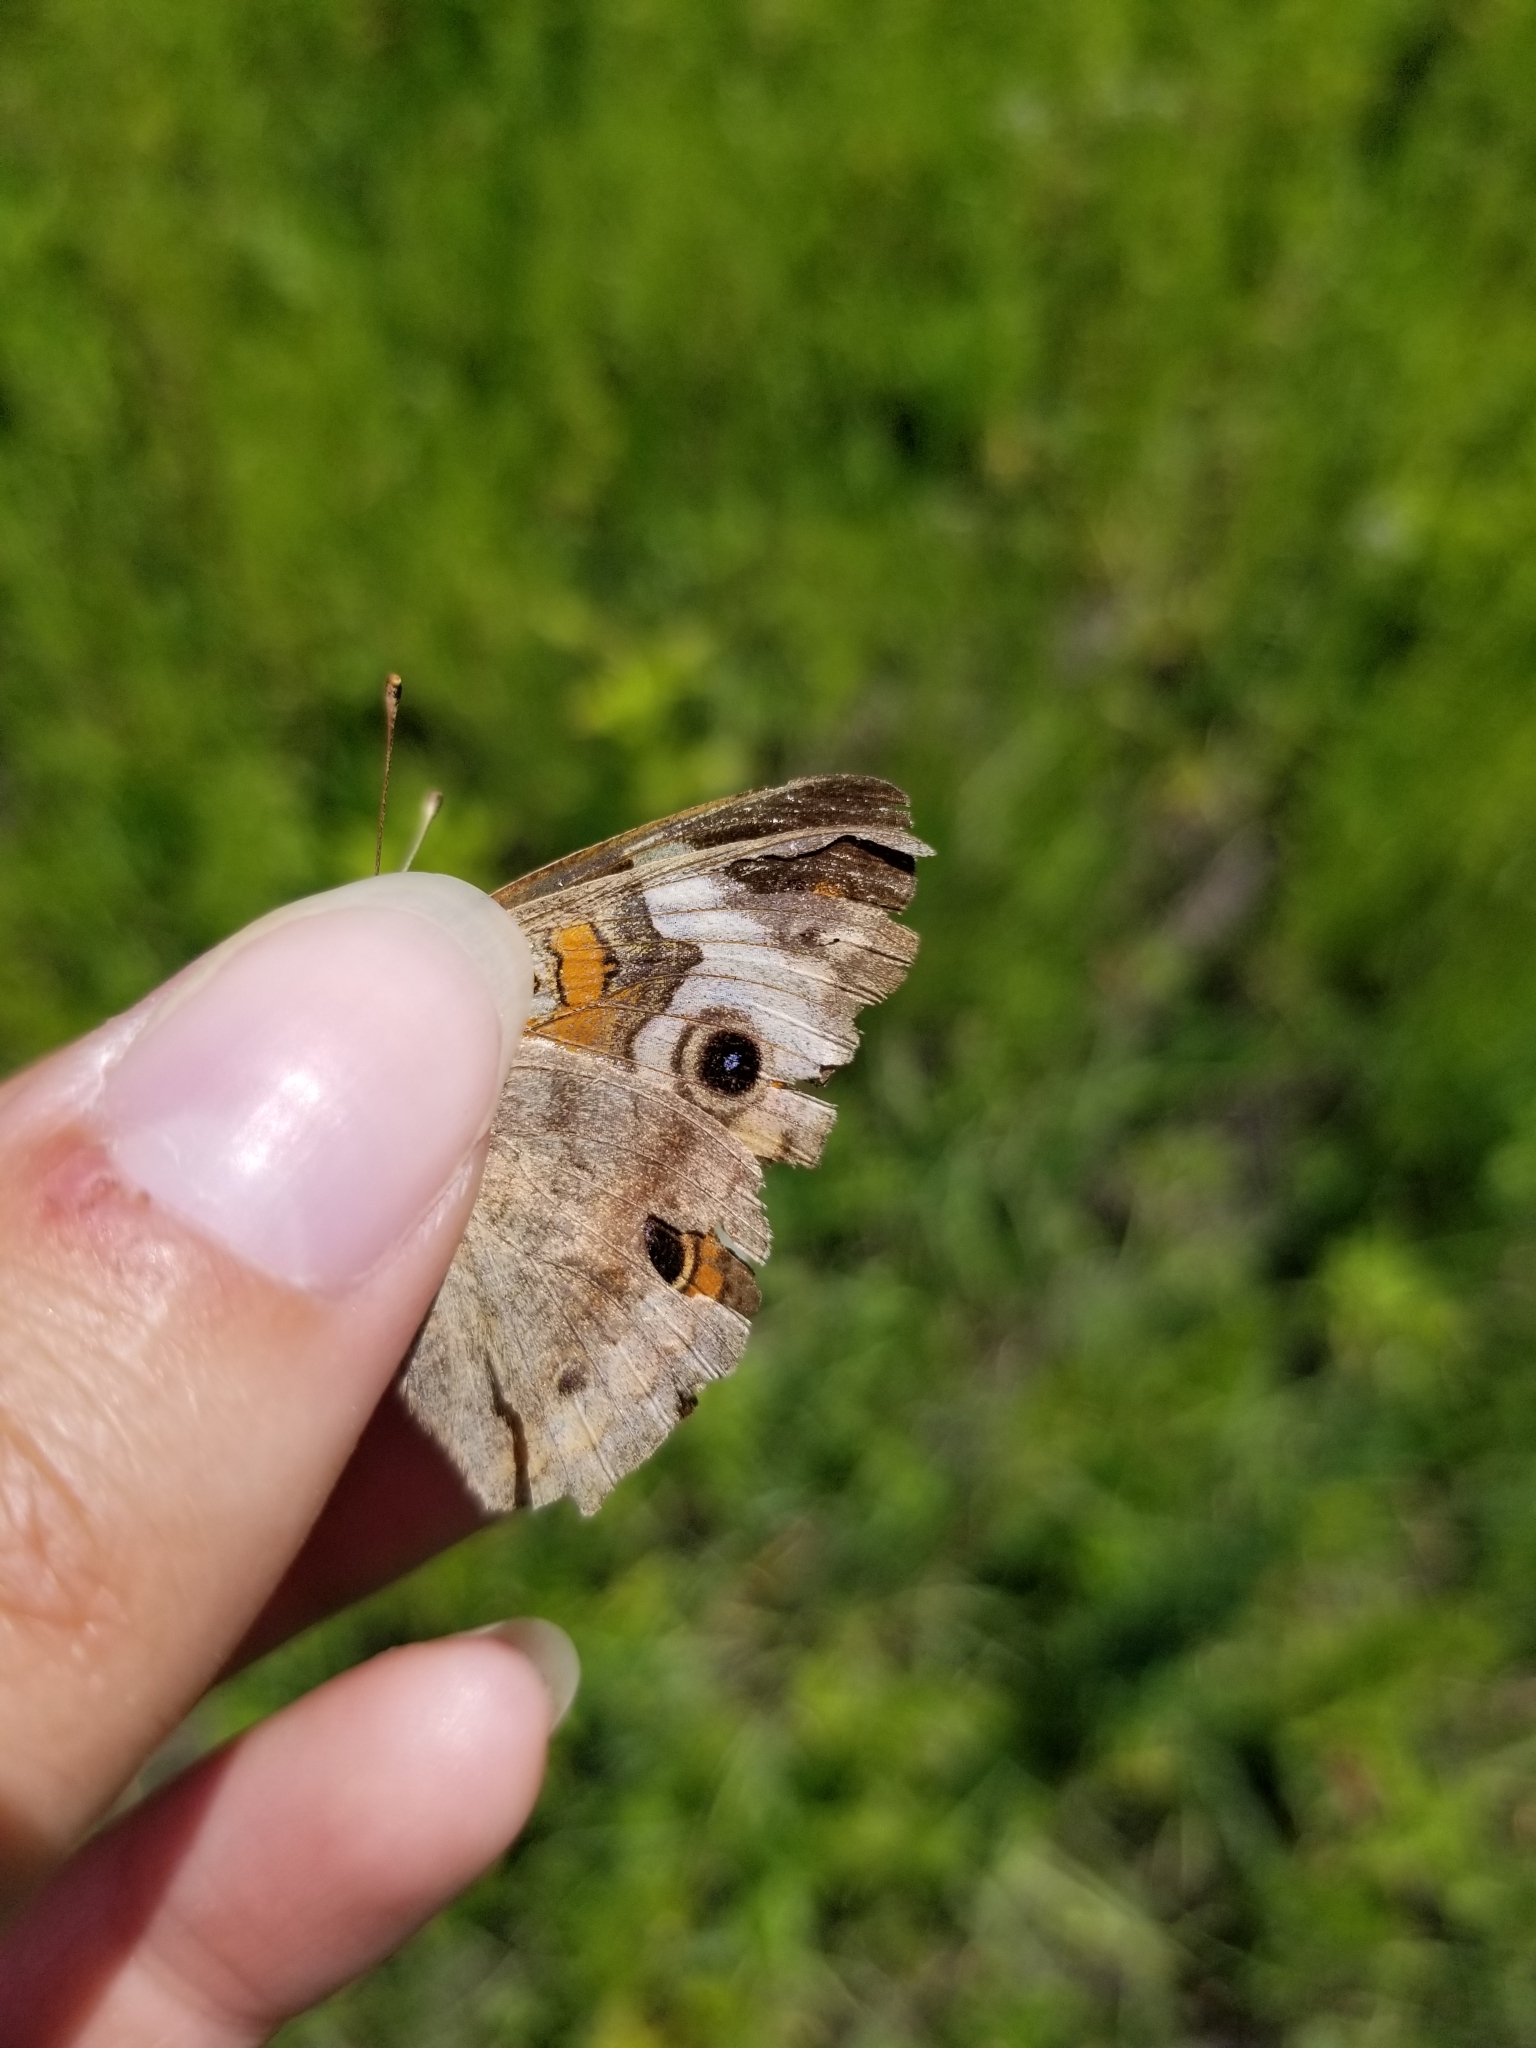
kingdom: Animalia
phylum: Arthropoda
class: Insecta
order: Lepidoptera
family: Nymphalidae
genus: Junonia
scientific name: Junonia coenia
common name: Common buckeye
